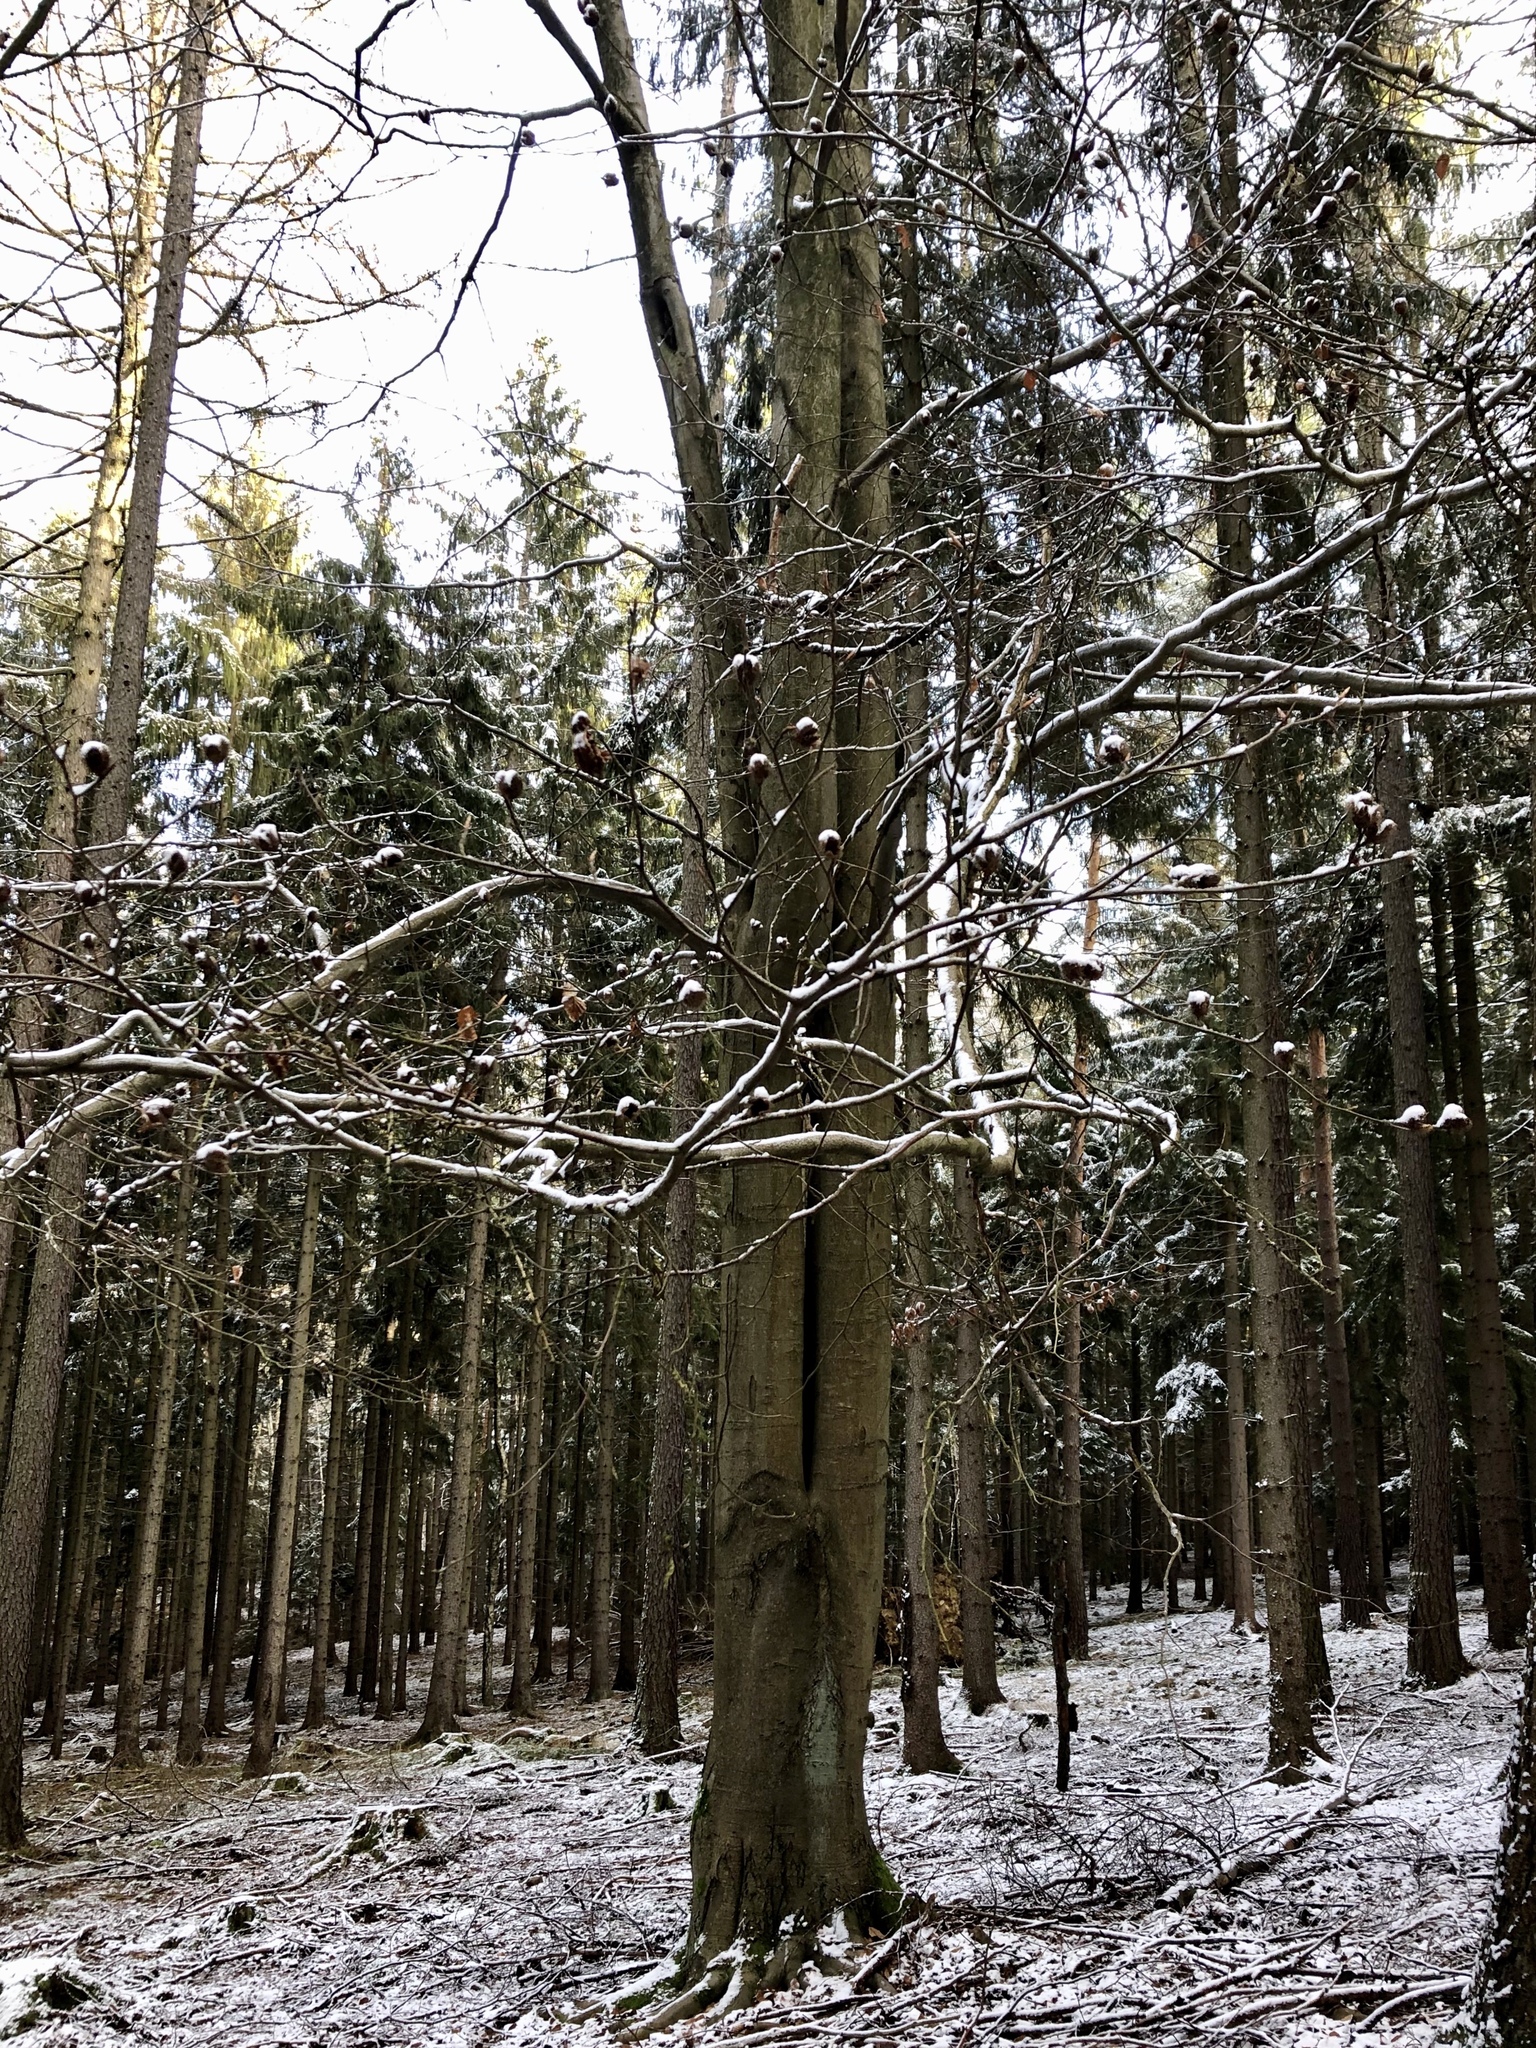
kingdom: Plantae
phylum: Tracheophyta
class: Magnoliopsida
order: Fagales
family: Fagaceae
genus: Fagus
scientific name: Fagus sylvatica
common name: Beech
